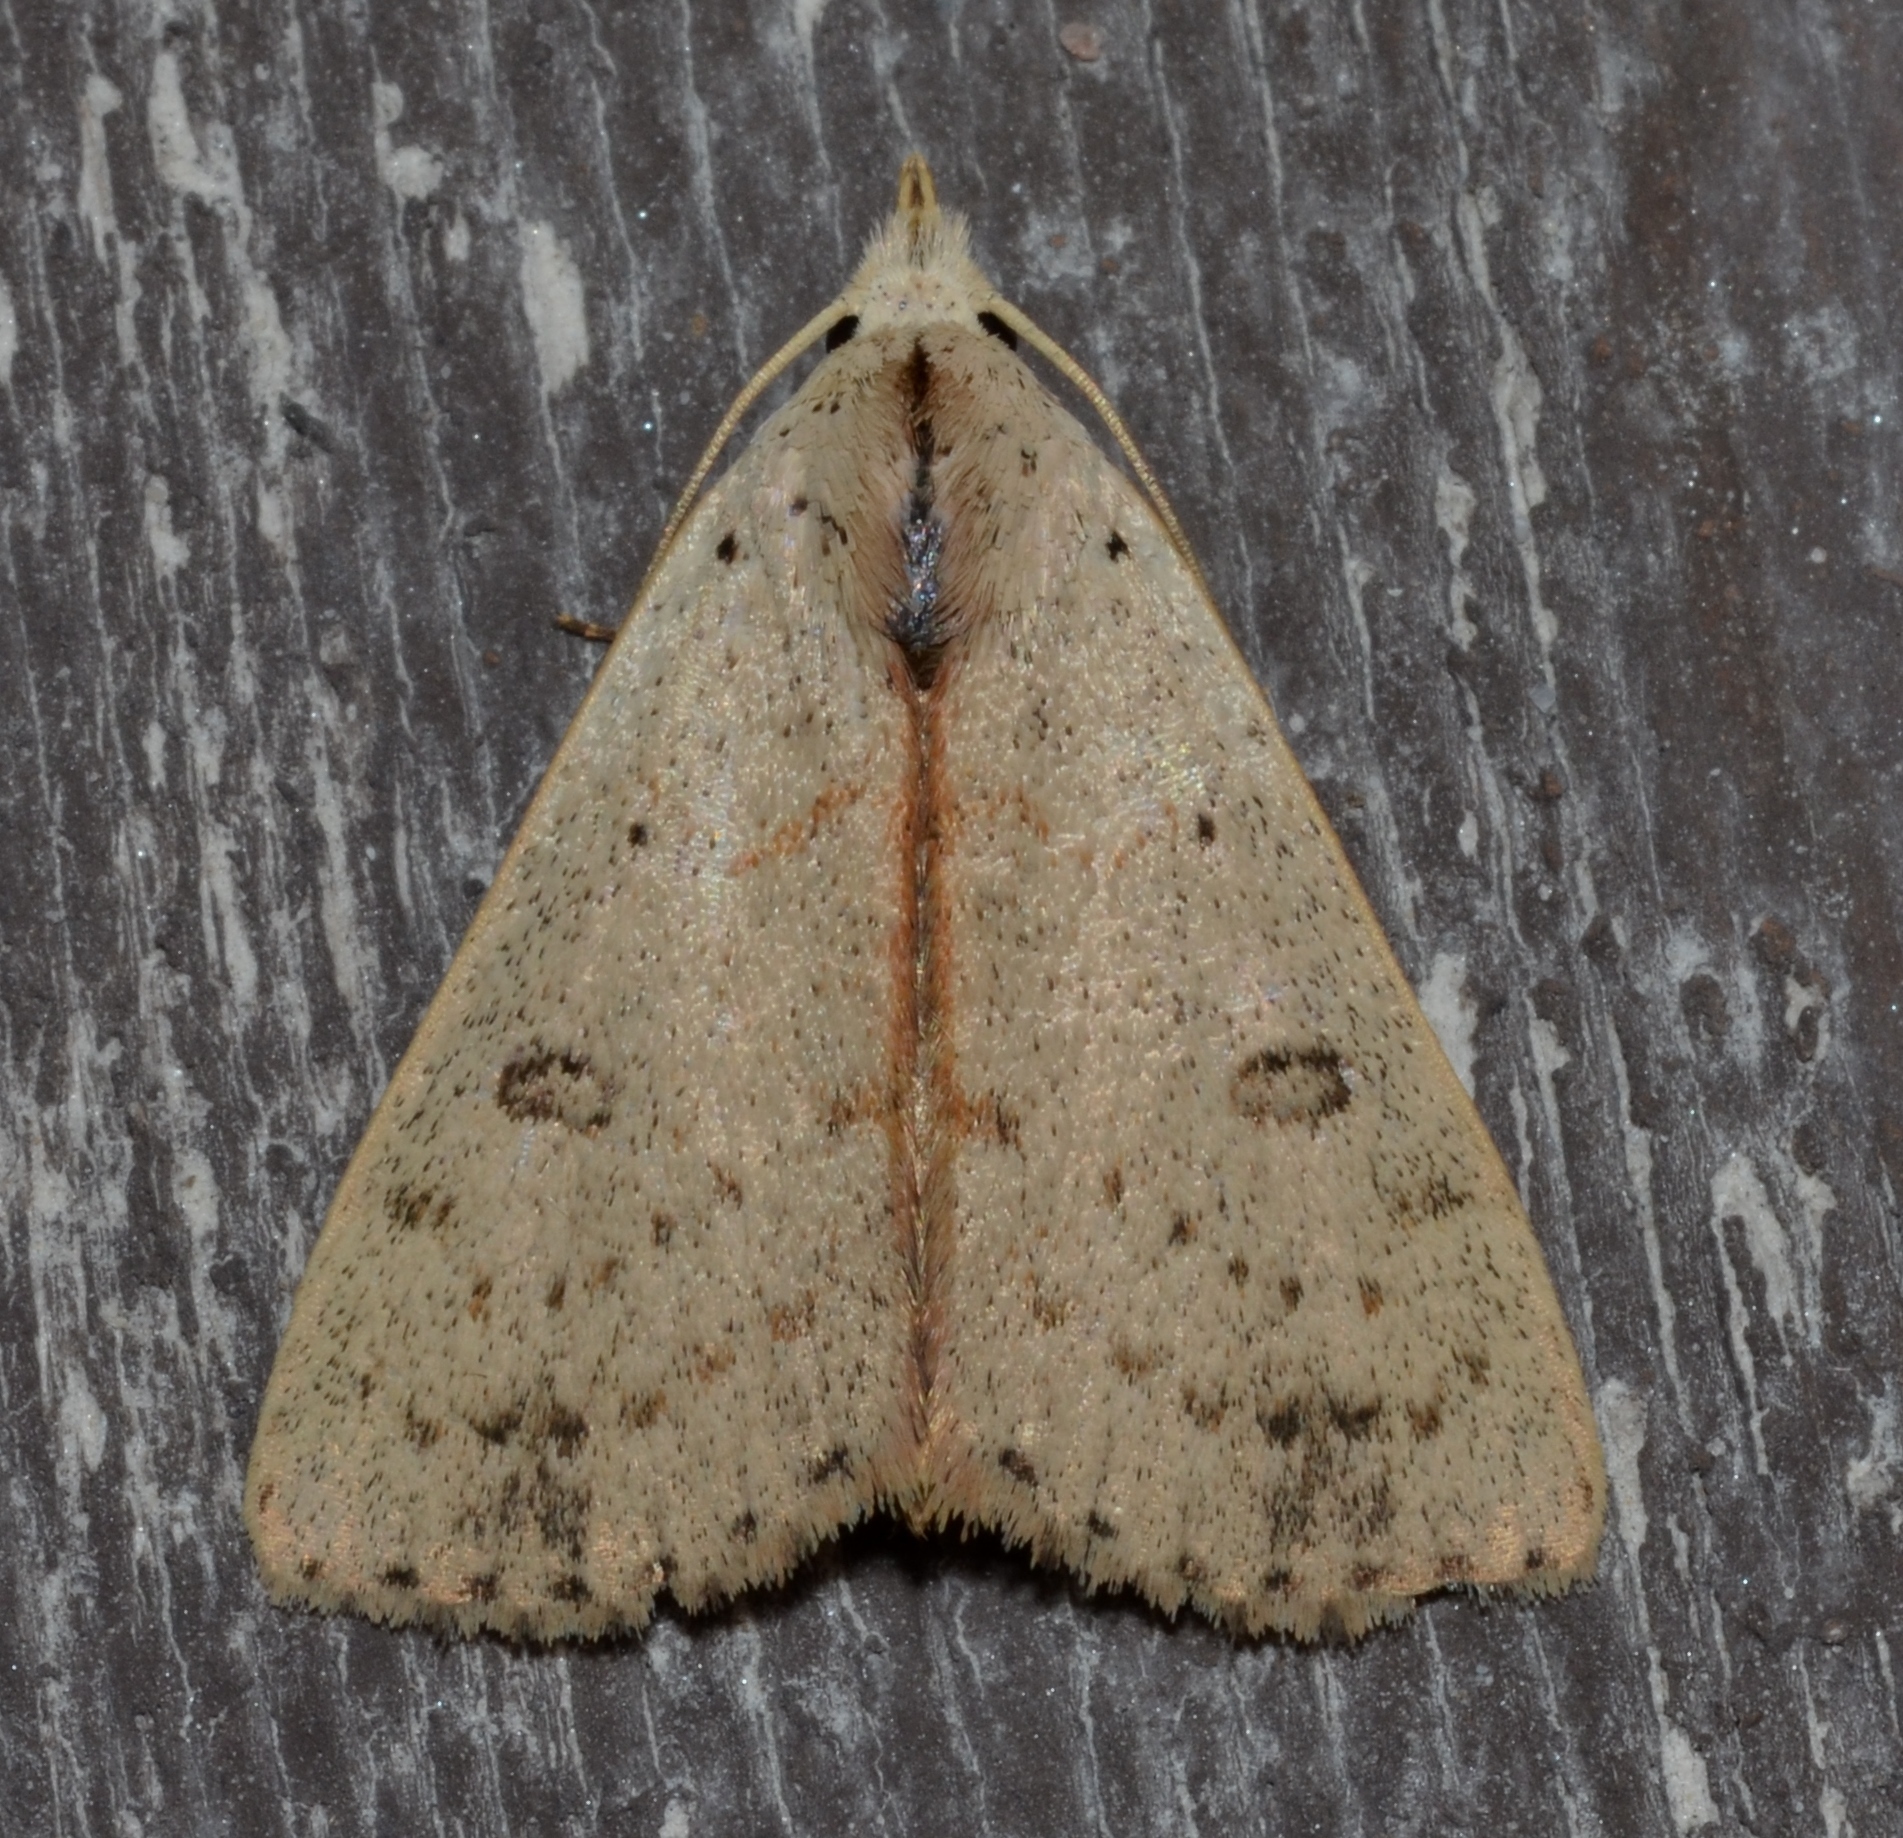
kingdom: Animalia
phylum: Arthropoda
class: Insecta
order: Lepidoptera
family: Erebidae
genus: Scolecocampa
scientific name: Scolecocampa liburna
